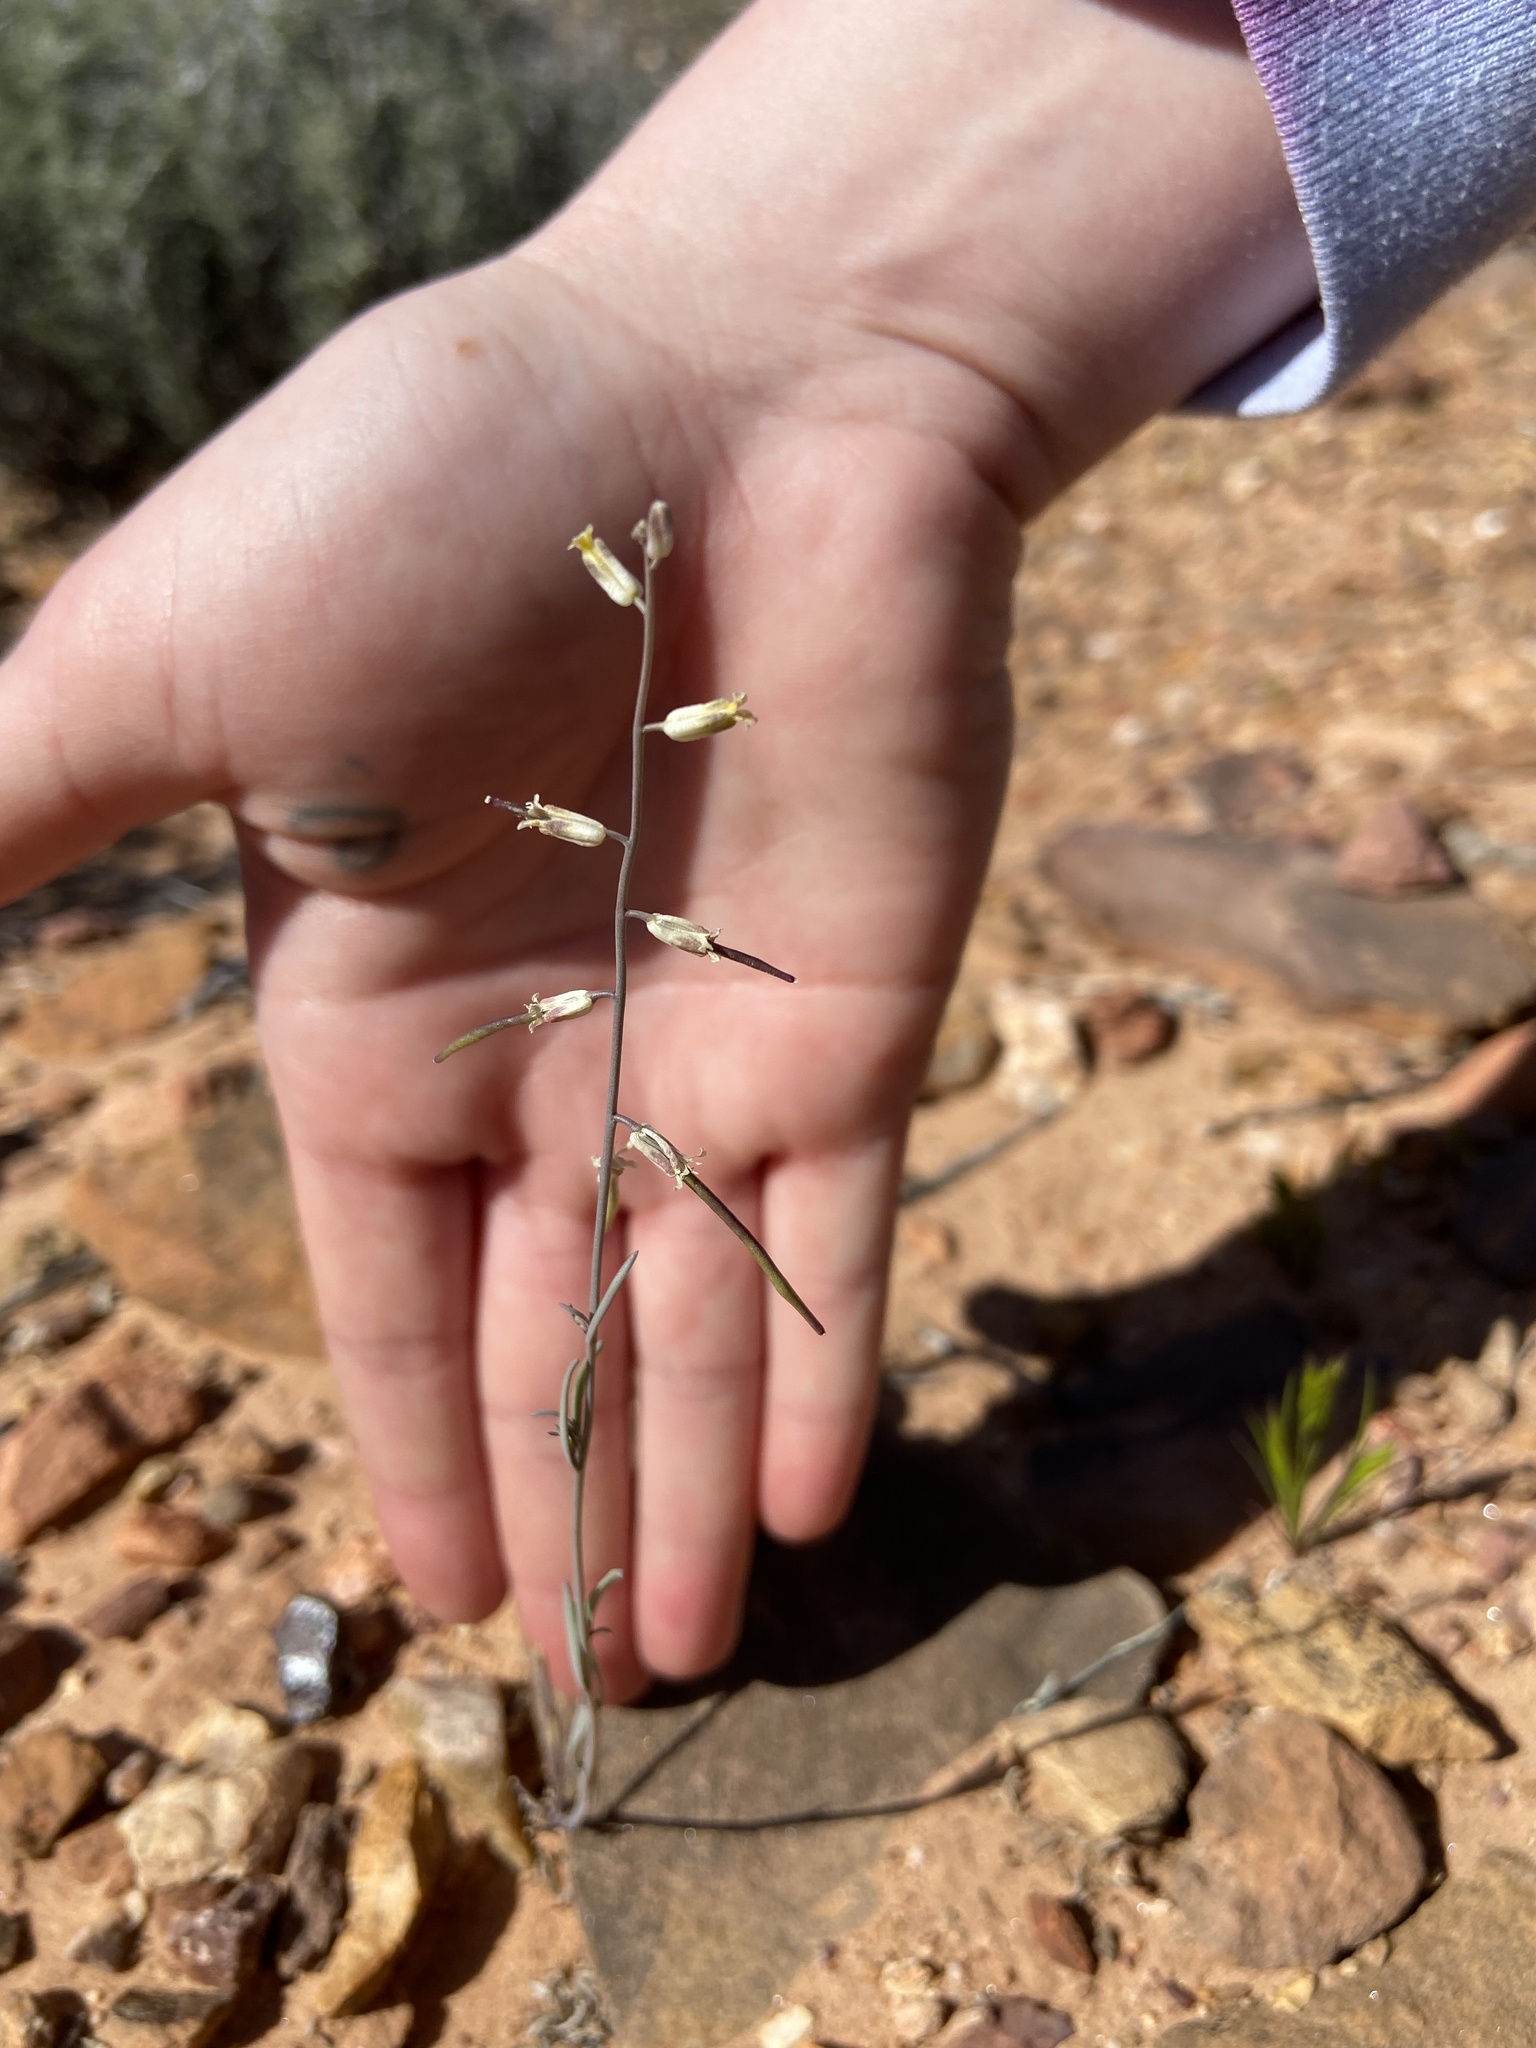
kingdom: Plantae
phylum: Tracheophyta
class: Magnoliopsida
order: Brassicales
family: Brassicaceae
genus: Streptanthus
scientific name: Streptanthus longirostris
